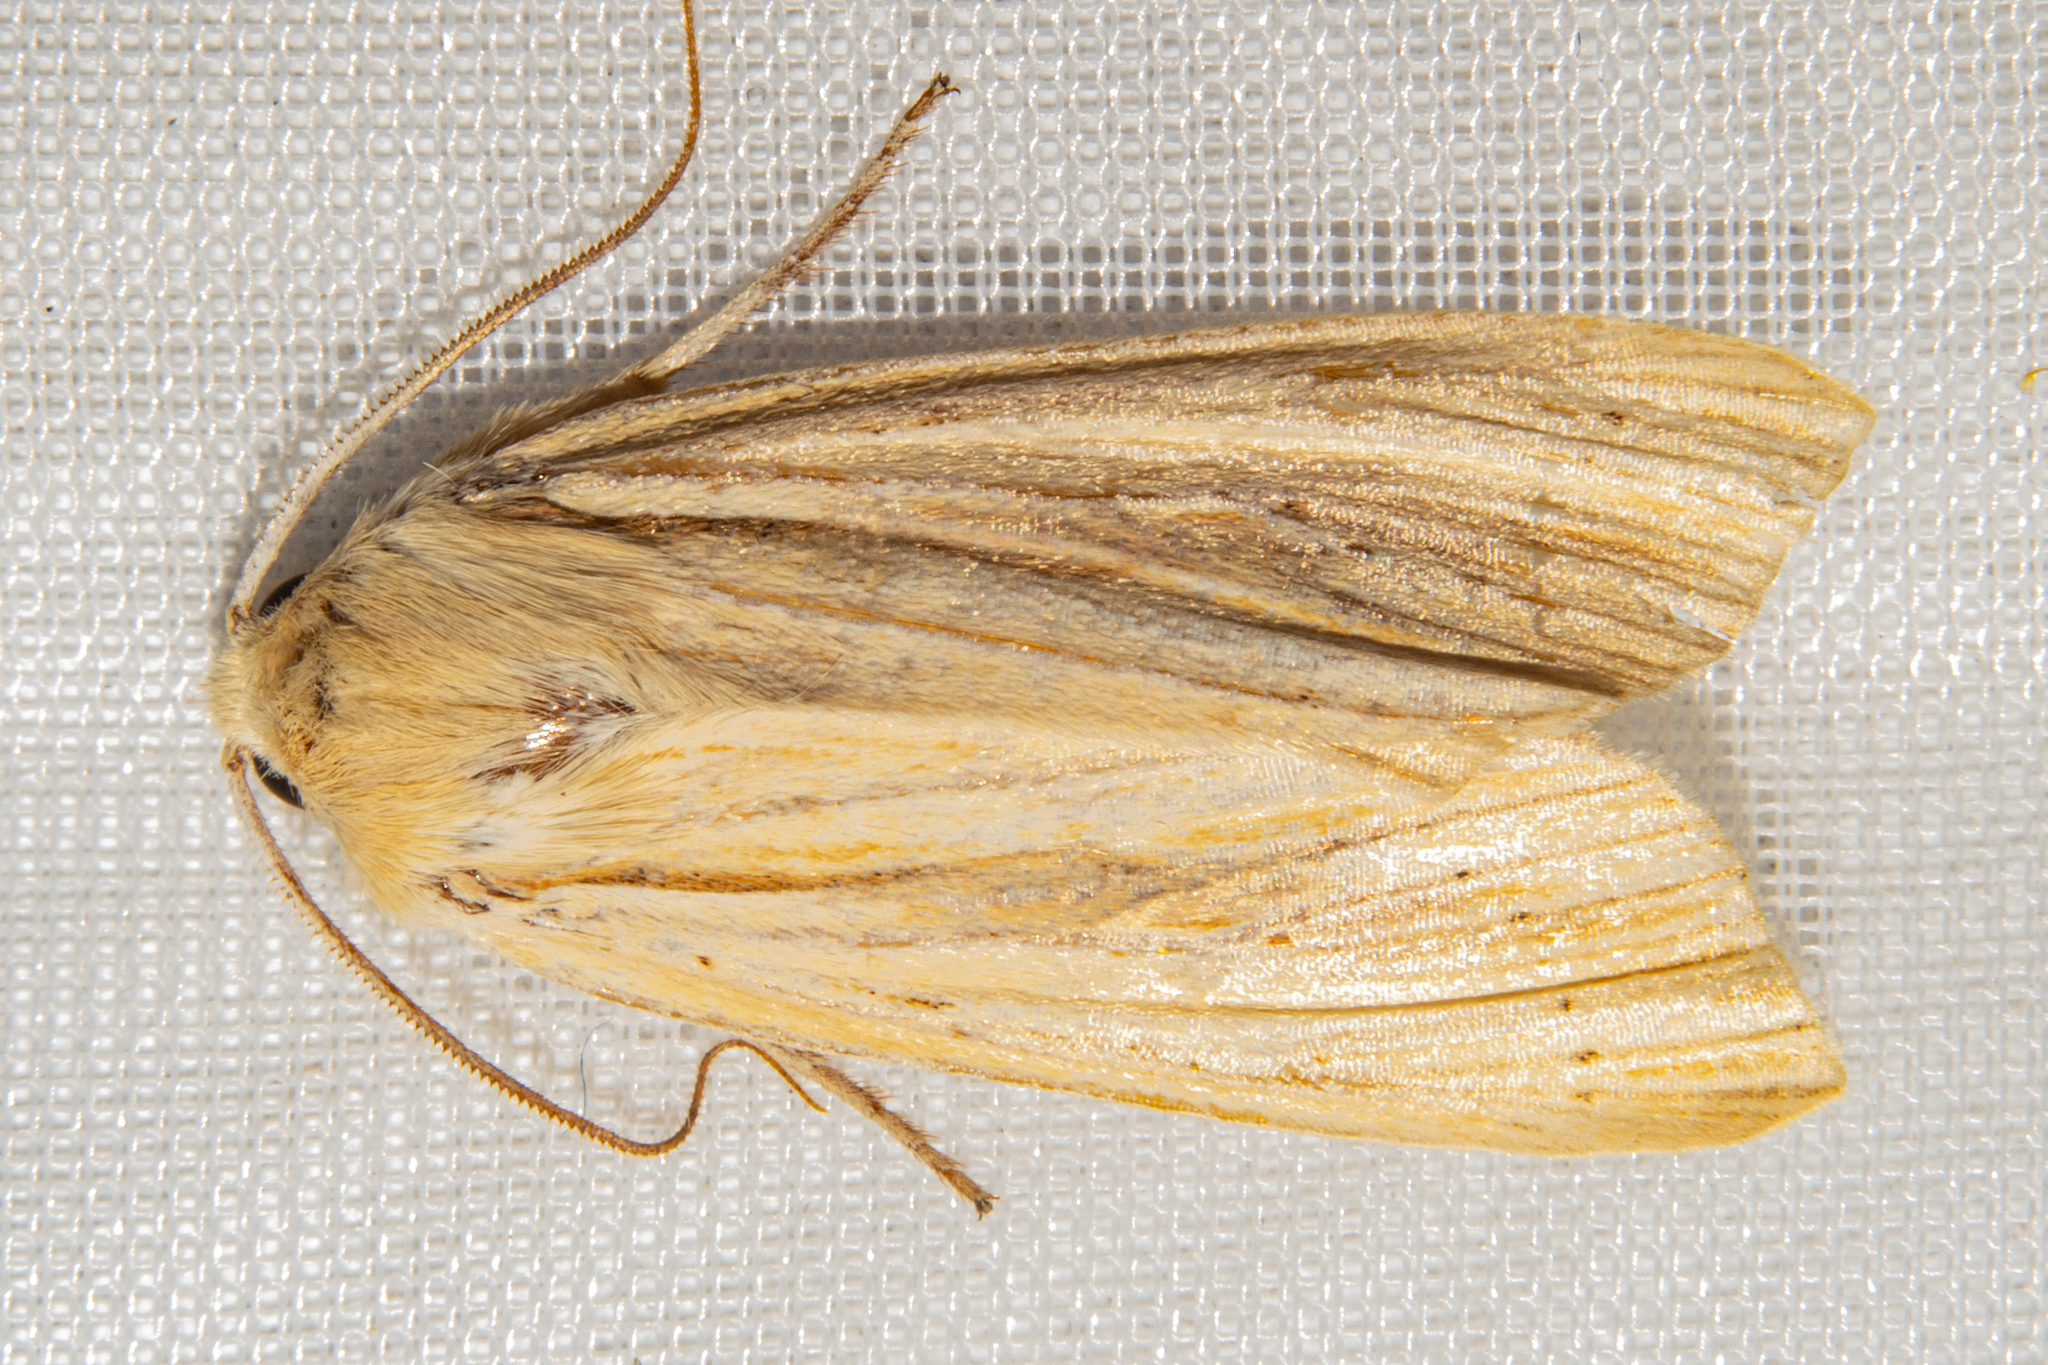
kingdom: Animalia
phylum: Arthropoda
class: Insecta
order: Lepidoptera
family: Noctuidae
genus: Ichneutica
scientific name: Ichneutica semivittata
